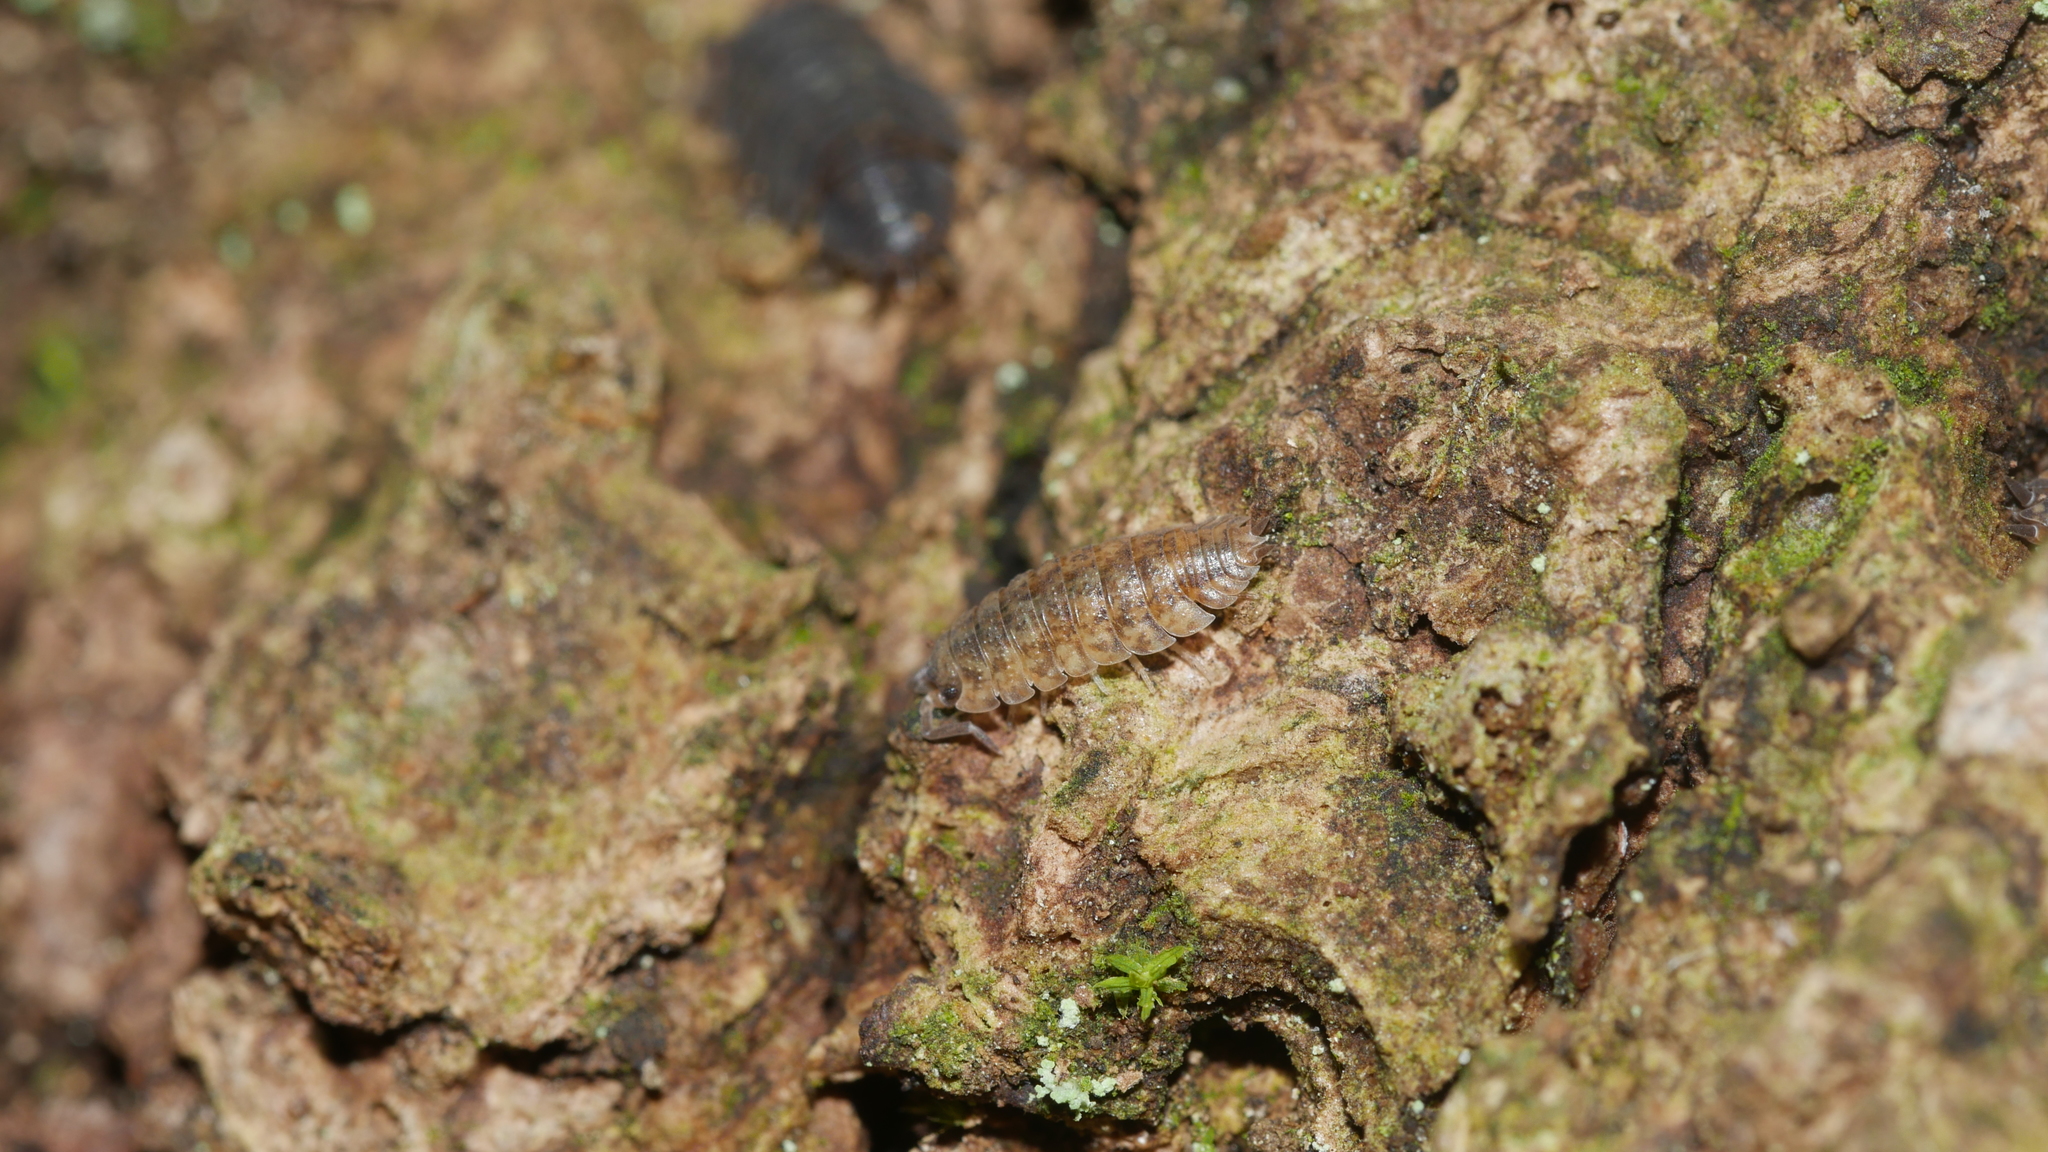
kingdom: Animalia
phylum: Arthropoda
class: Malacostraca
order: Isopoda
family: Porcellionidae
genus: Porcellio
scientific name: Porcellio scaber
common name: Common rough woodlouse
